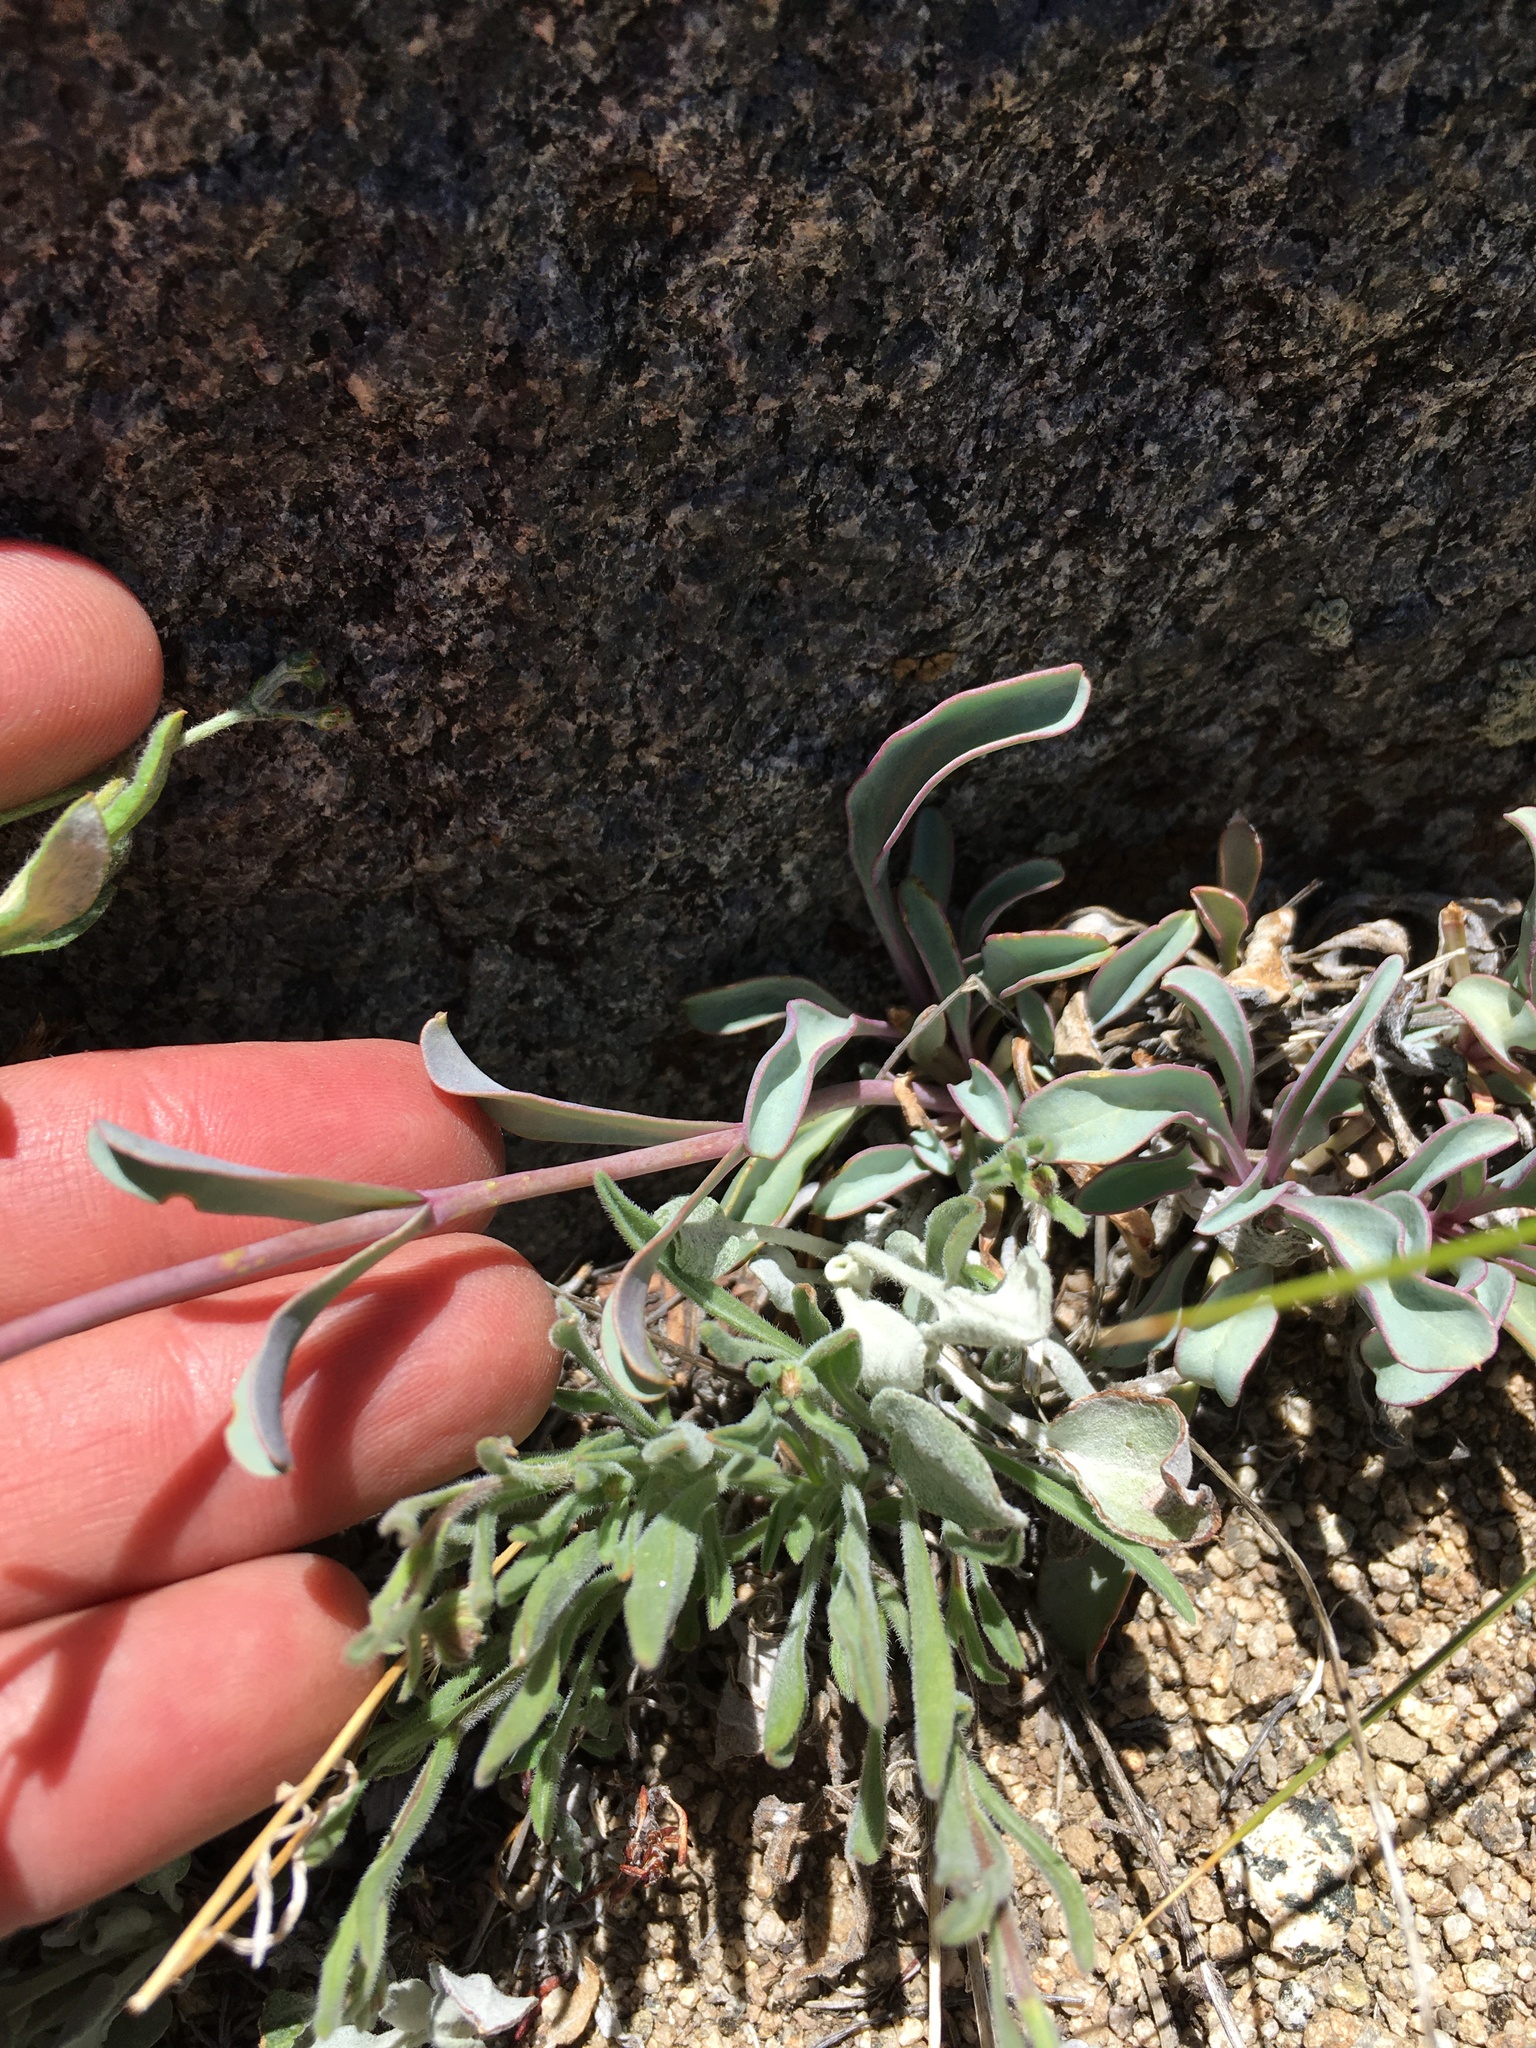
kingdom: Plantae
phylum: Tracheophyta
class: Magnoliopsida
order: Lamiales
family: Plantaginaceae
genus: Penstemon
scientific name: Penstemon patens
